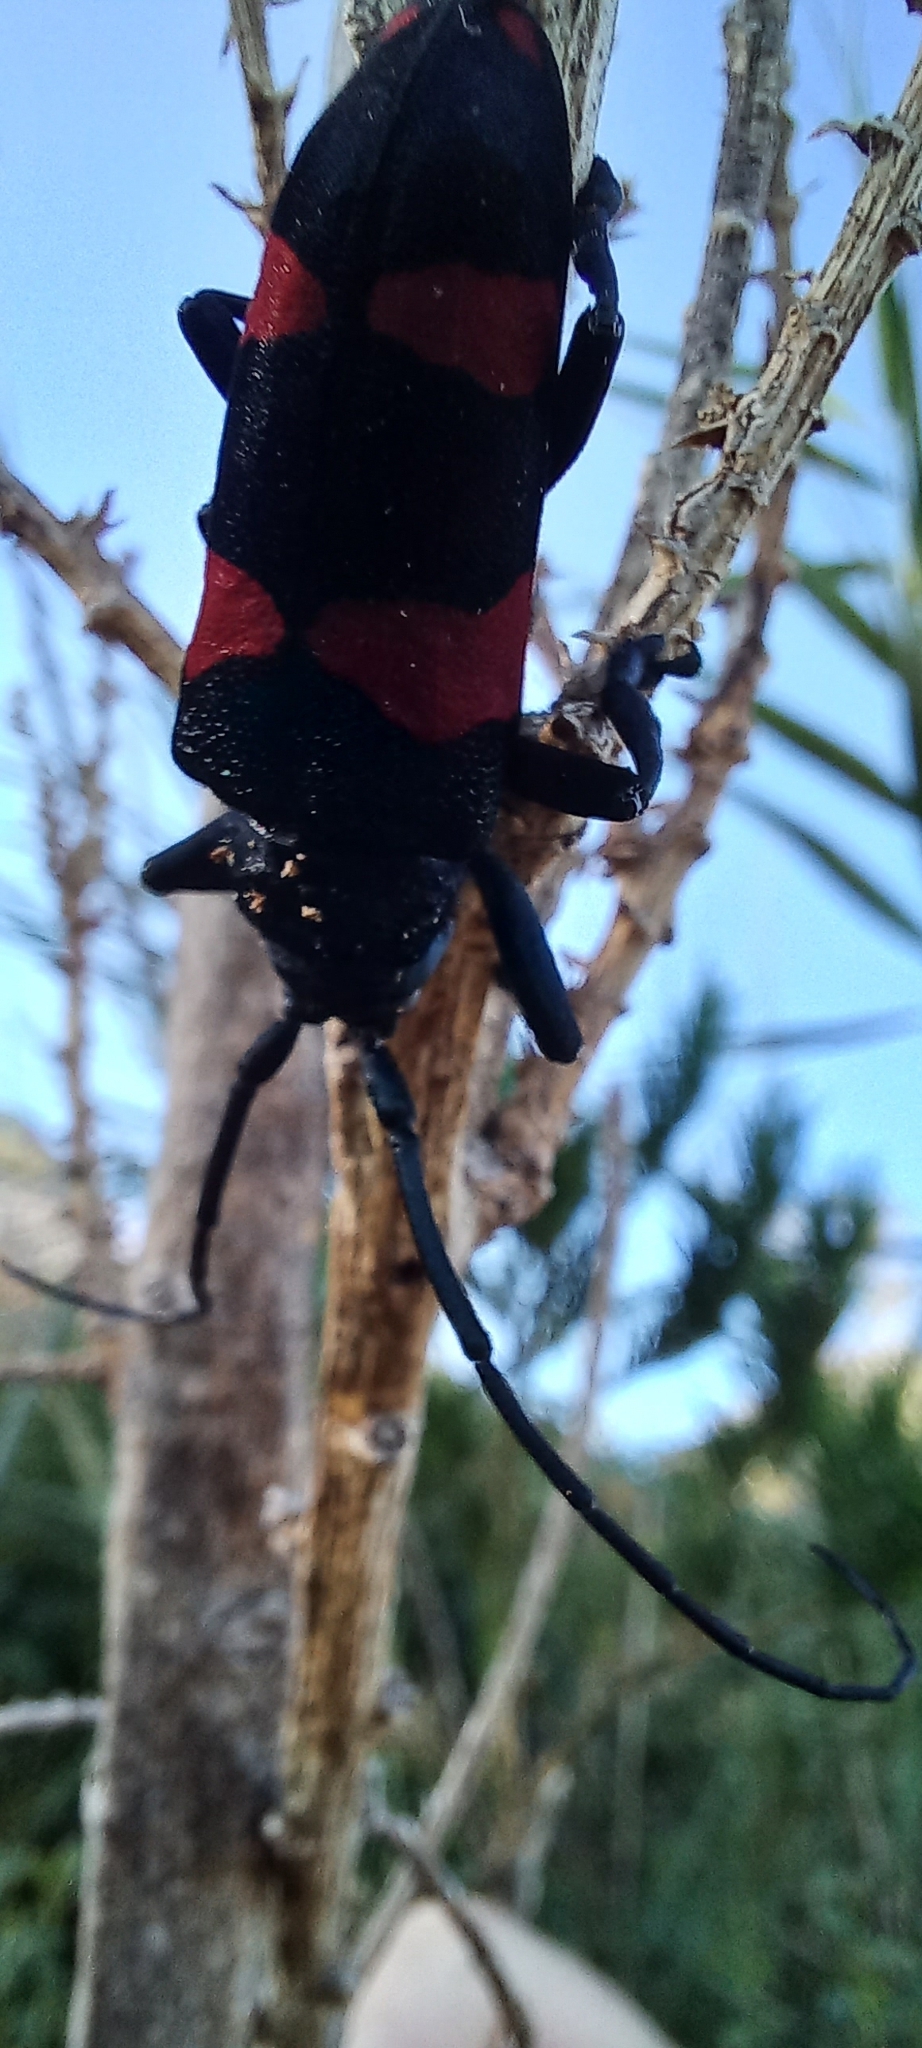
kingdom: Animalia
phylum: Arthropoda
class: Insecta
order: Coleoptera
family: Cerambycidae
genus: Ceroplesis
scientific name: Ceroplesis aethiops
